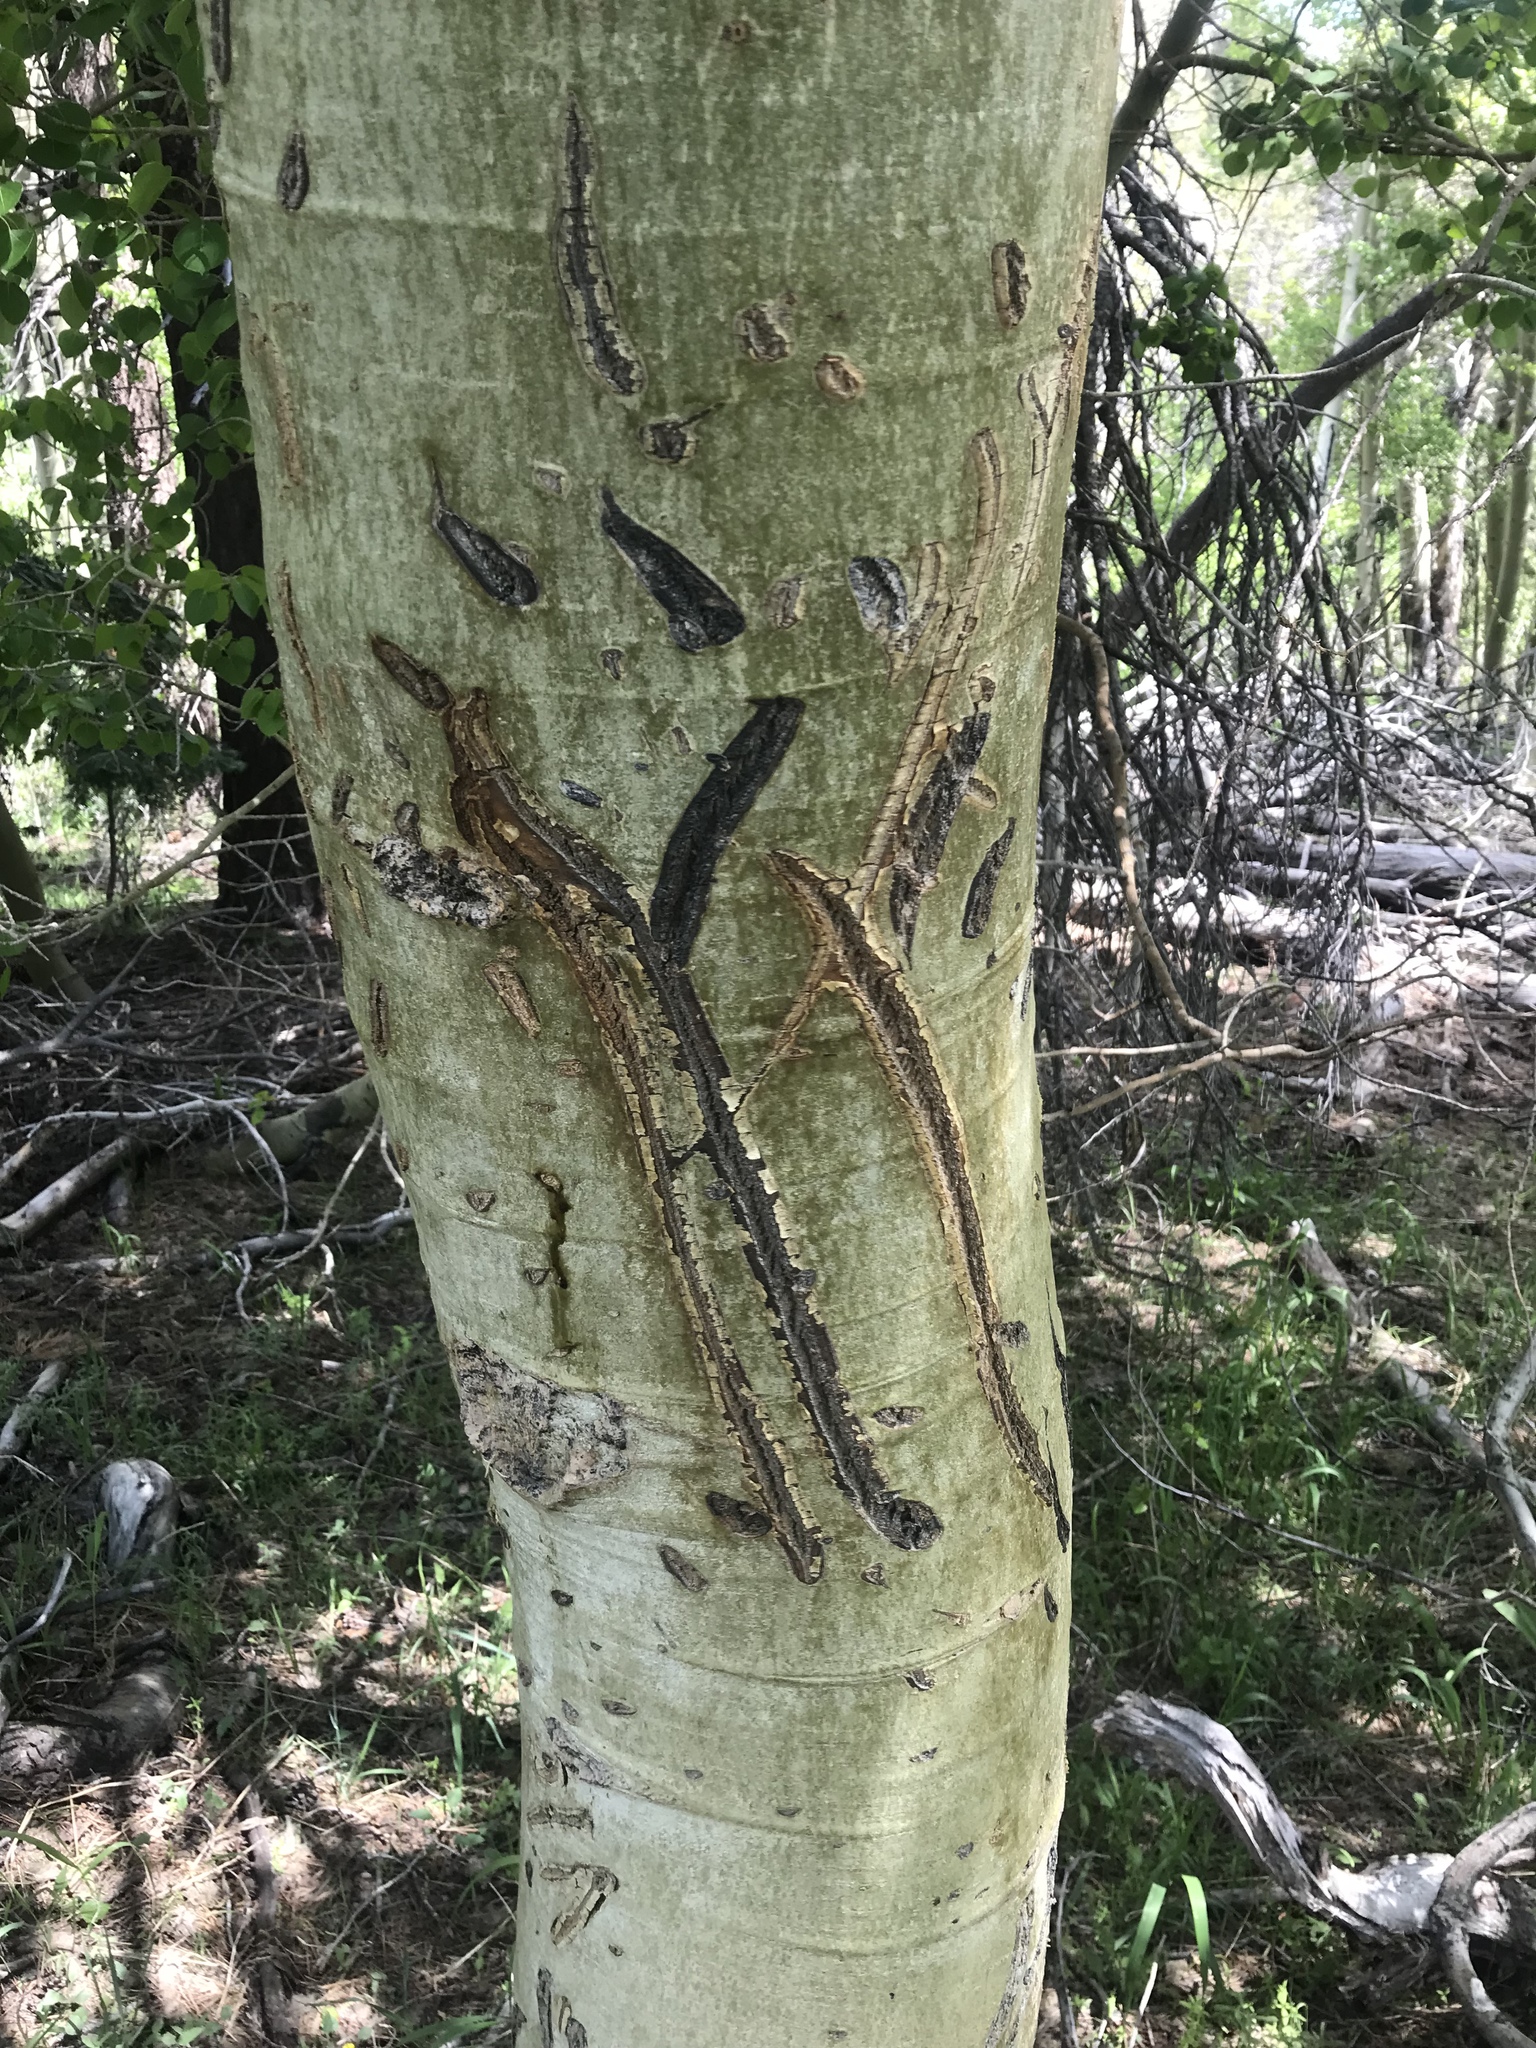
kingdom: Animalia
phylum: Chordata
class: Mammalia
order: Carnivora
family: Ursidae
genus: Ursus
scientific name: Ursus americanus
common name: American black bear
